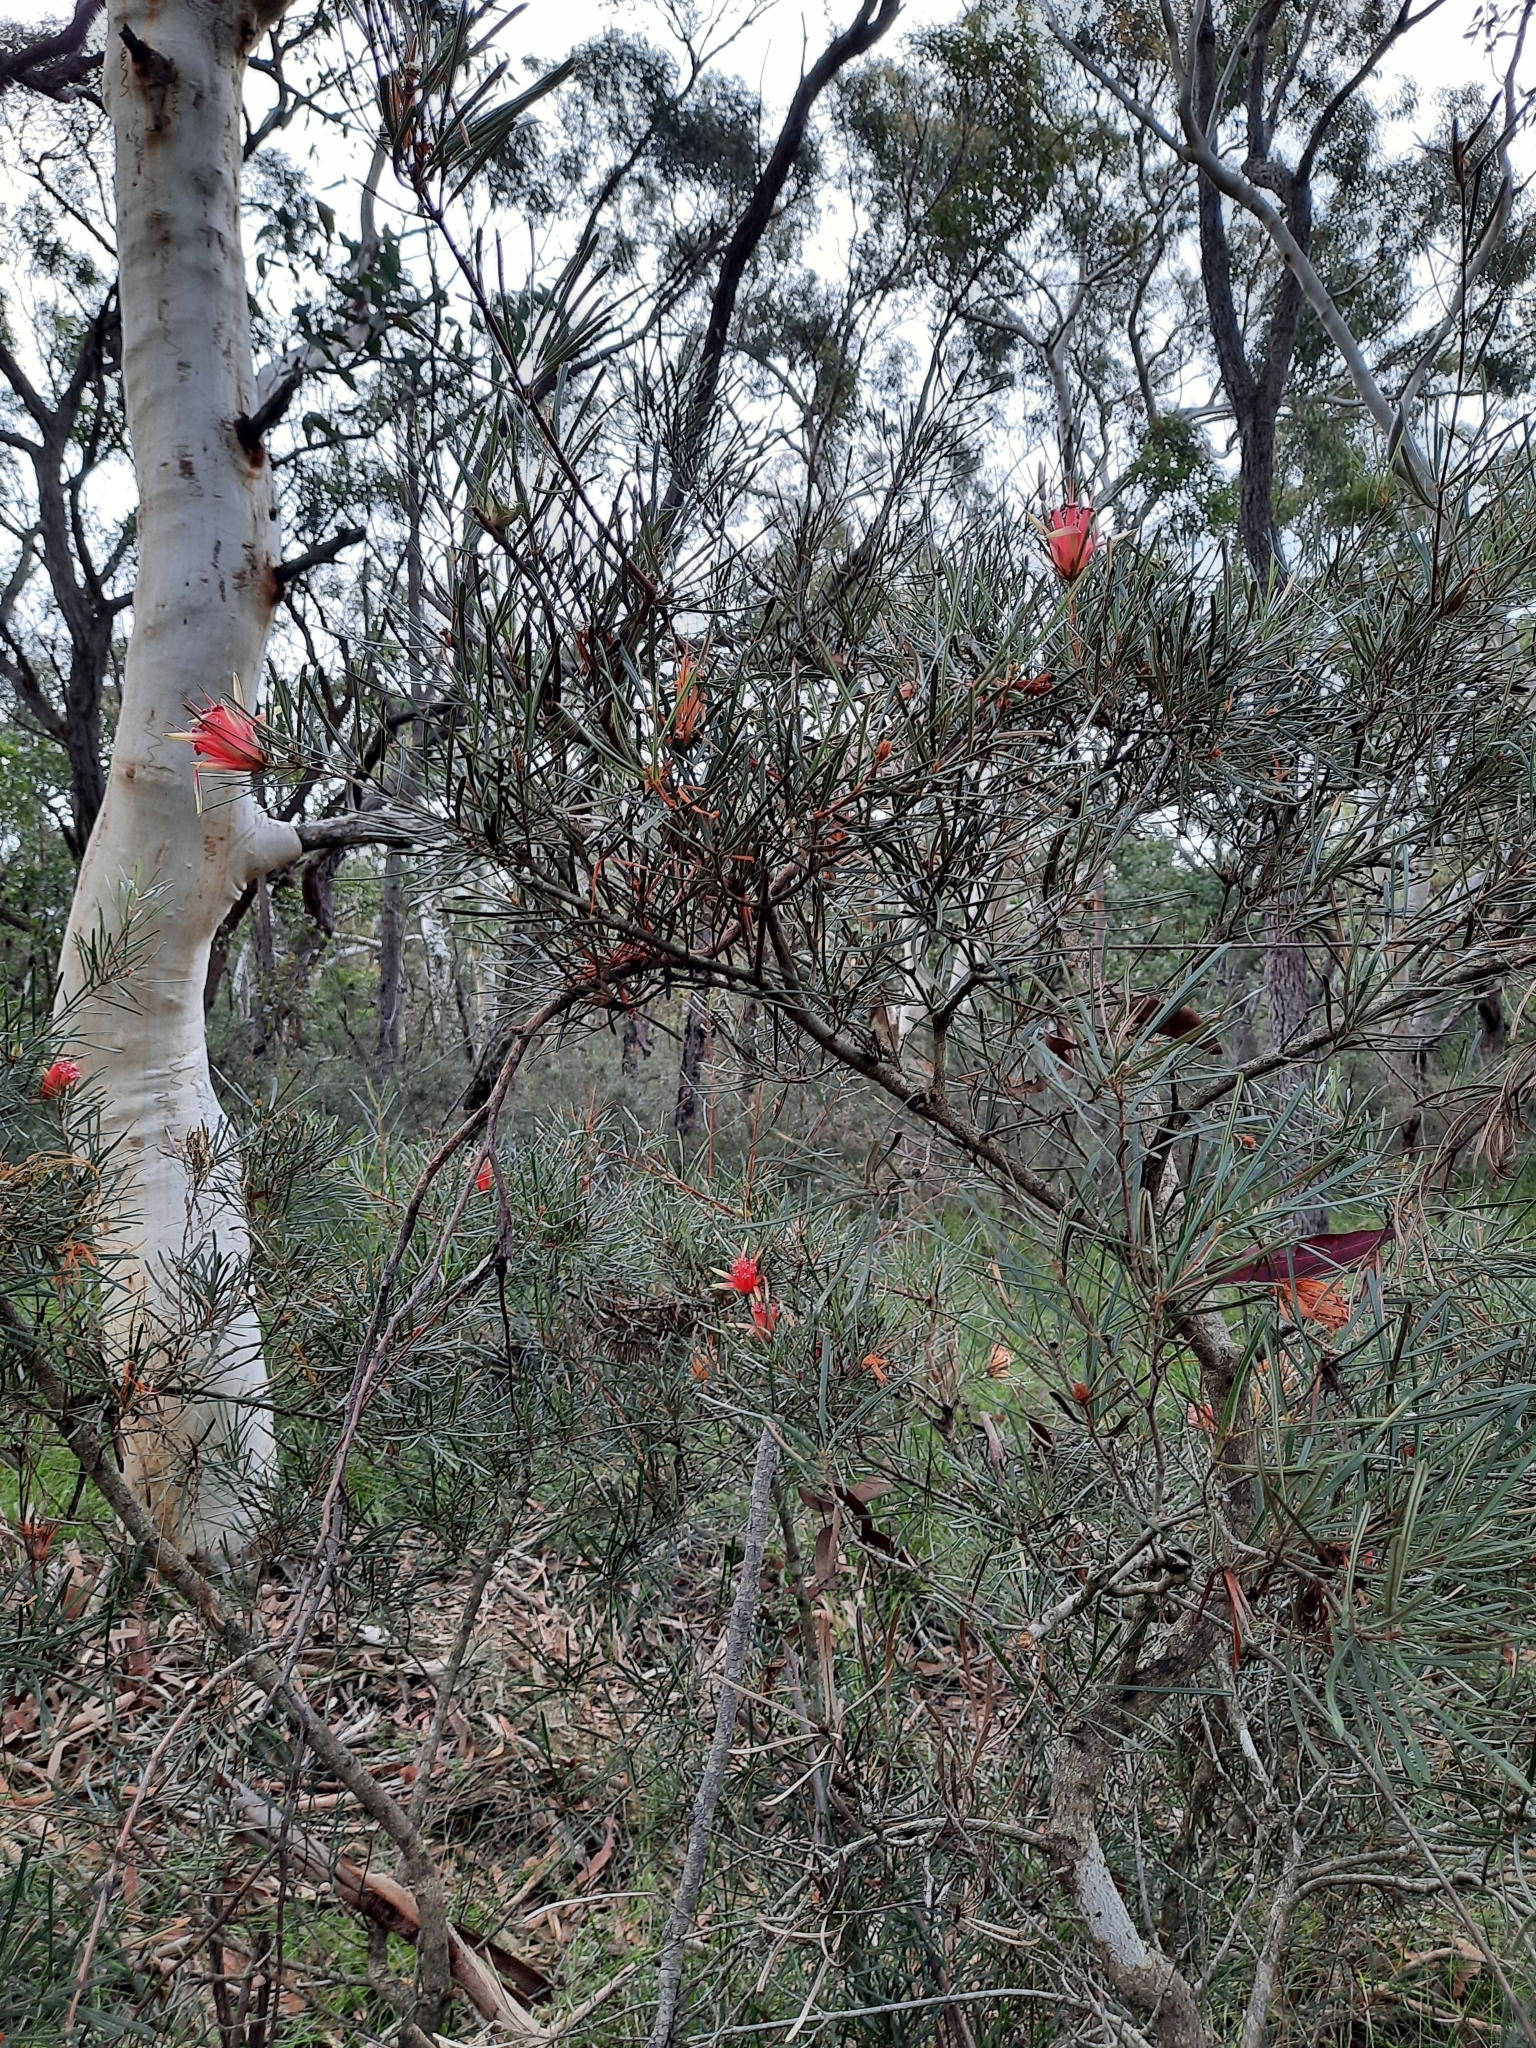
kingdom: Plantae
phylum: Tracheophyta
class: Magnoliopsida
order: Proteales
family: Proteaceae
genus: Lambertia
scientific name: Lambertia formosa
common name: Mountain-devil
